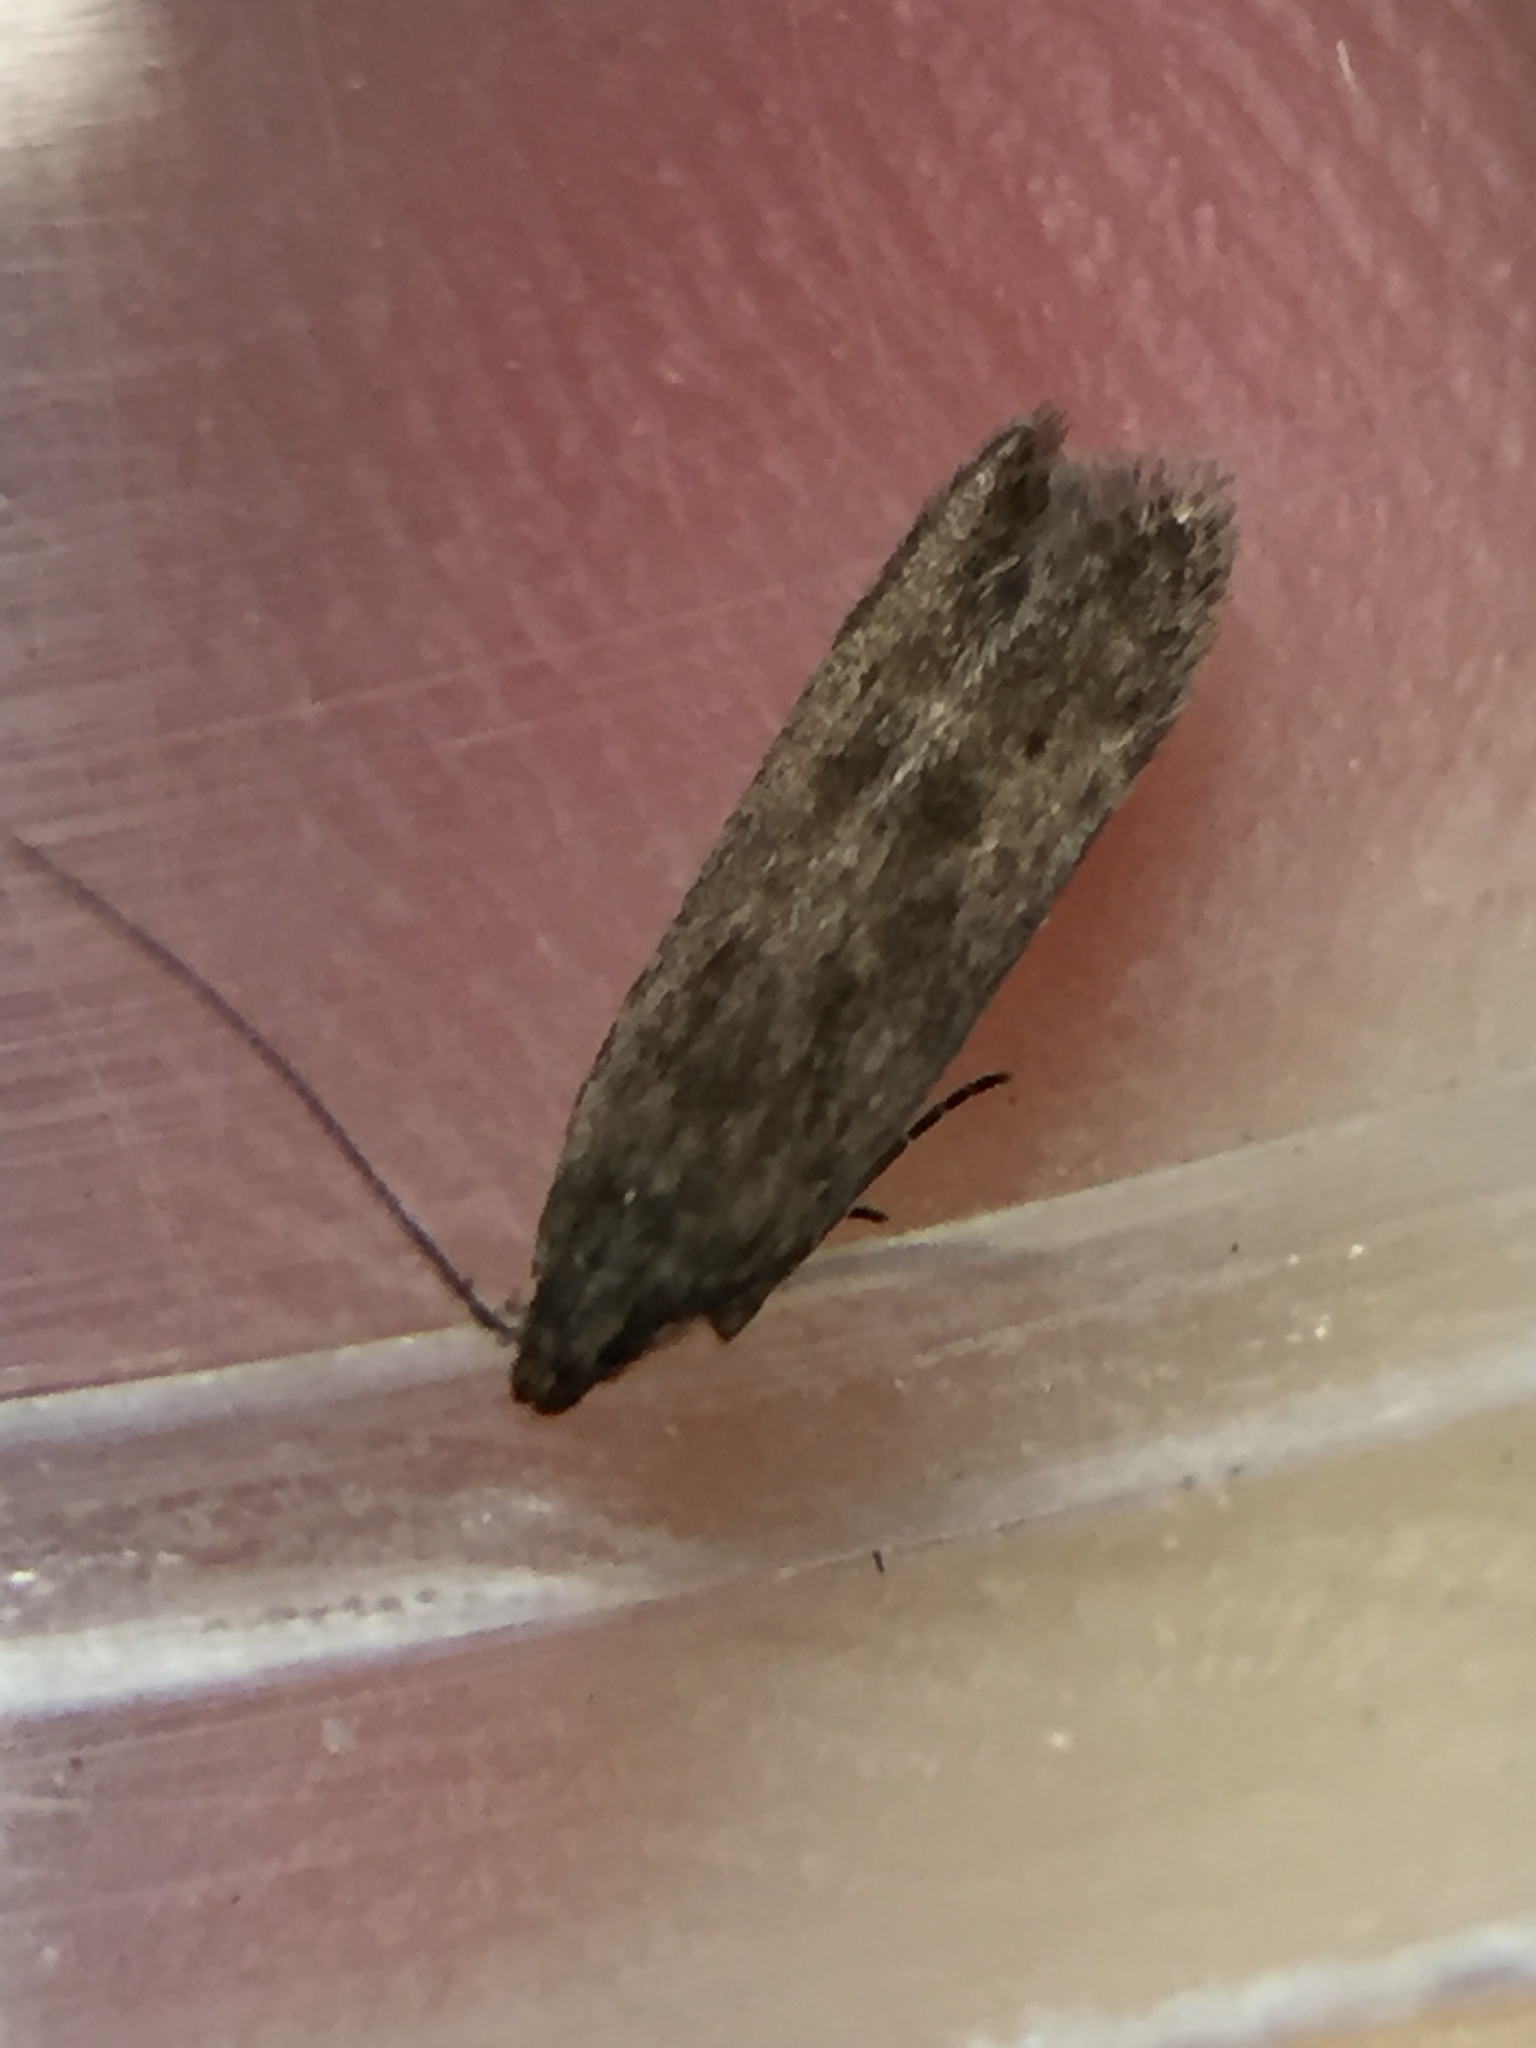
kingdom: Animalia
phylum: Arthropoda
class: Insecta
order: Lepidoptera
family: Gelechiidae
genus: Monochroa
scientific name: Monochroa
